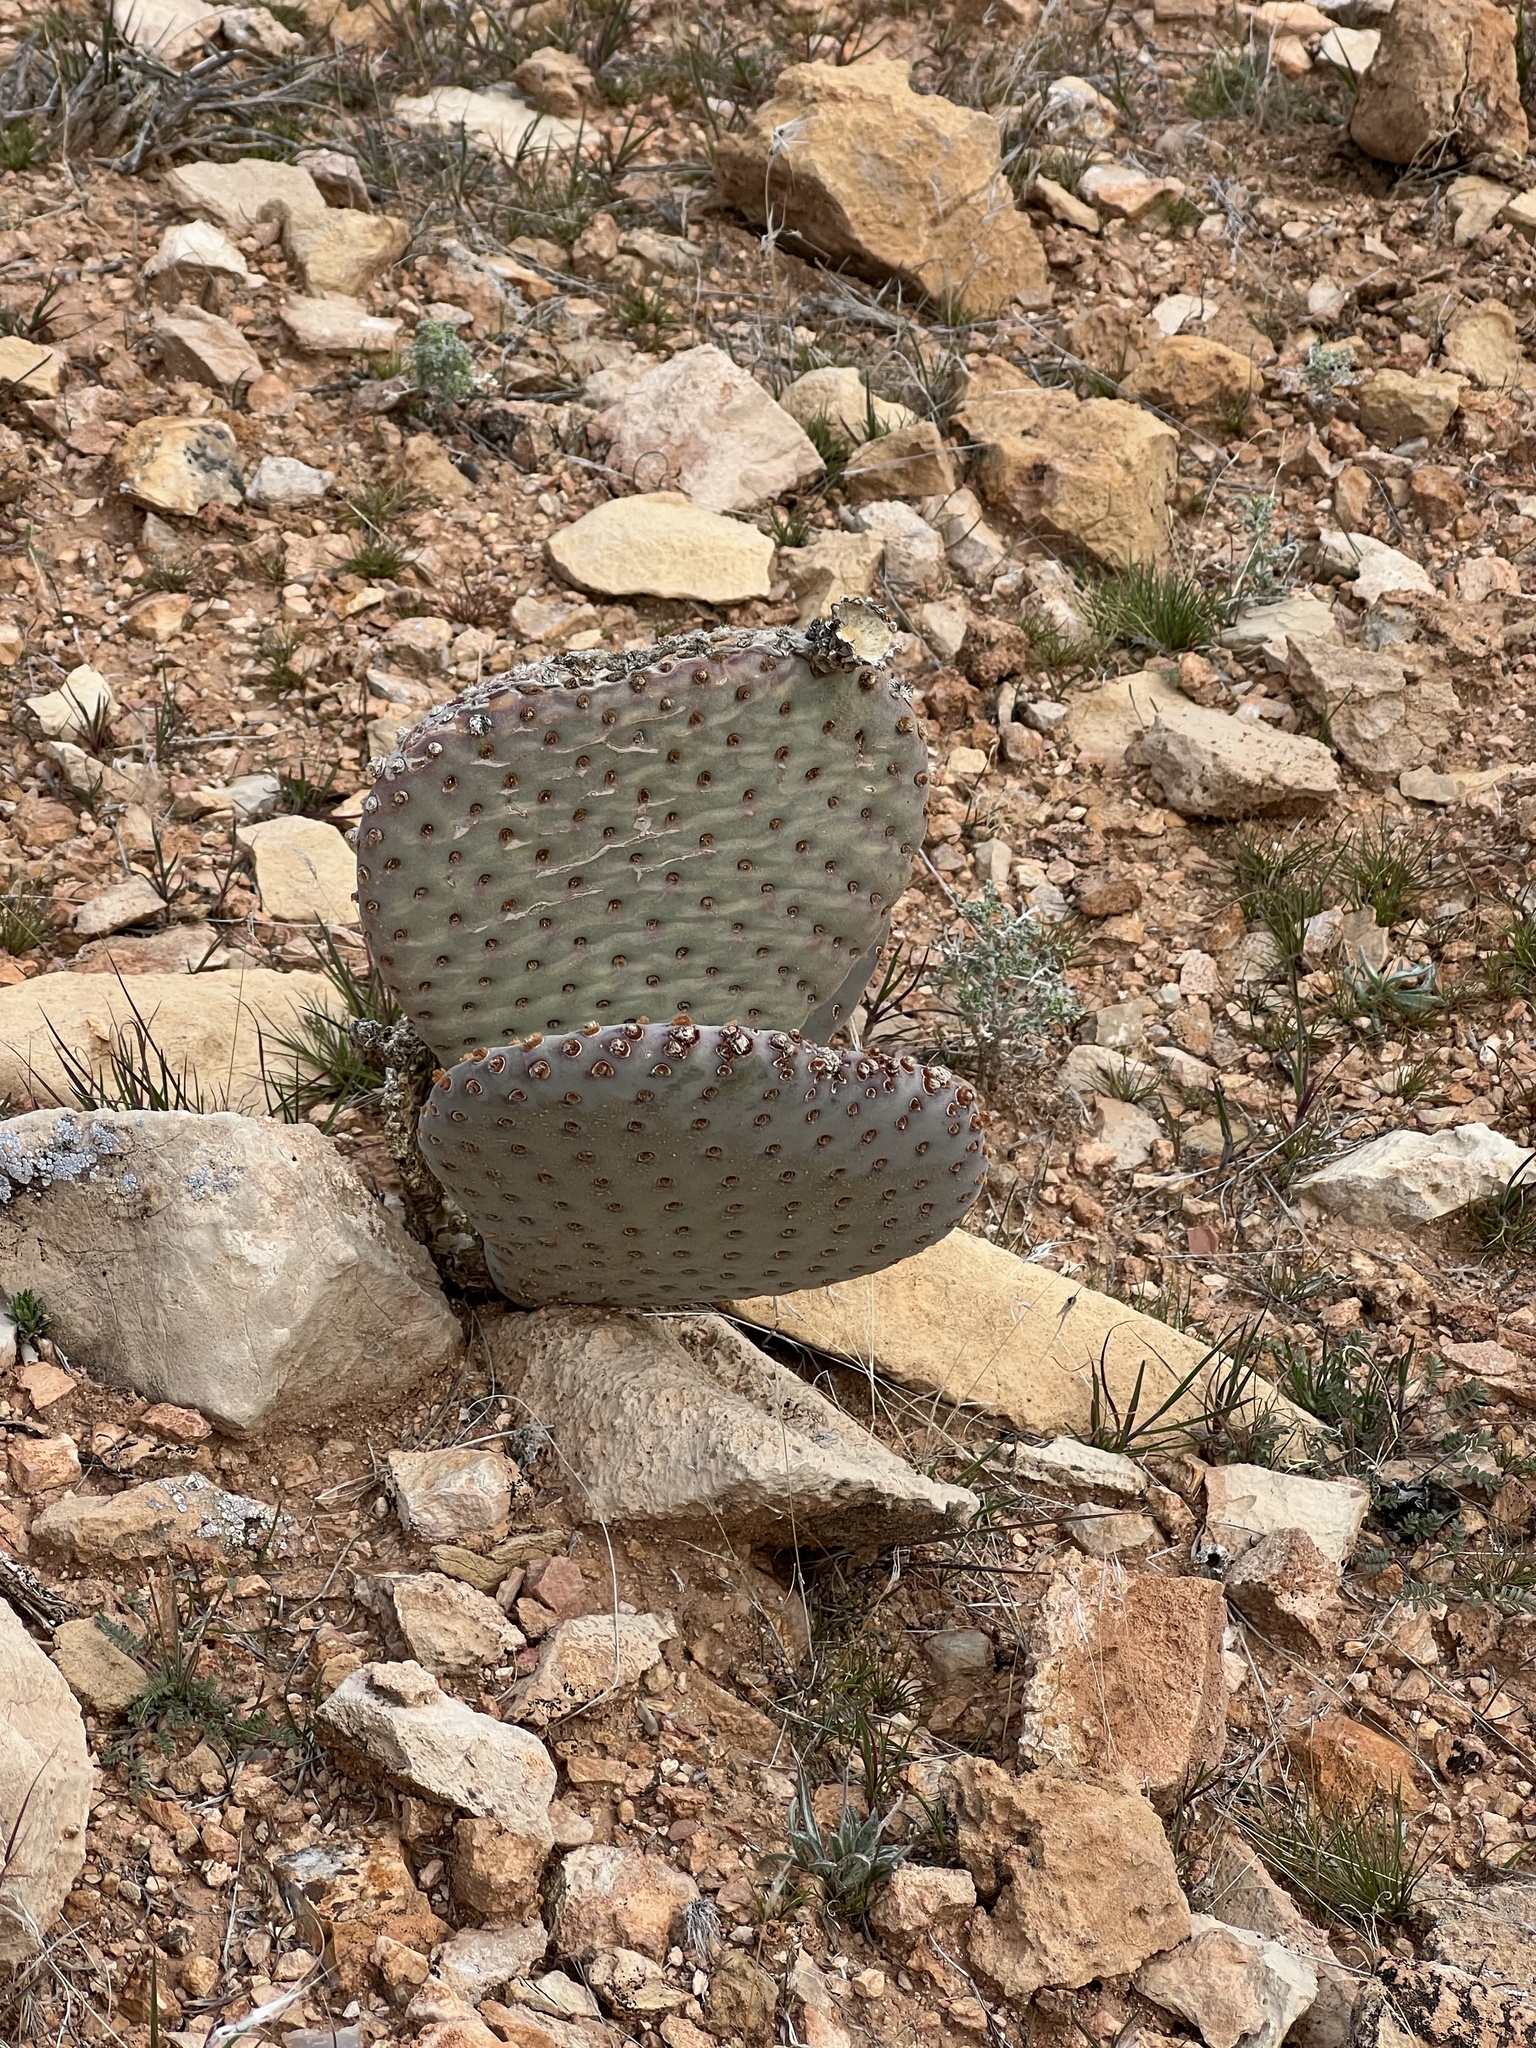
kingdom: Plantae
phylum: Tracheophyta
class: Magnoliopsida
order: Caryophyllales
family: Cactaceae
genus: Opuntia
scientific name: Opuntia basilaris
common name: Beavertail prickly-pear
